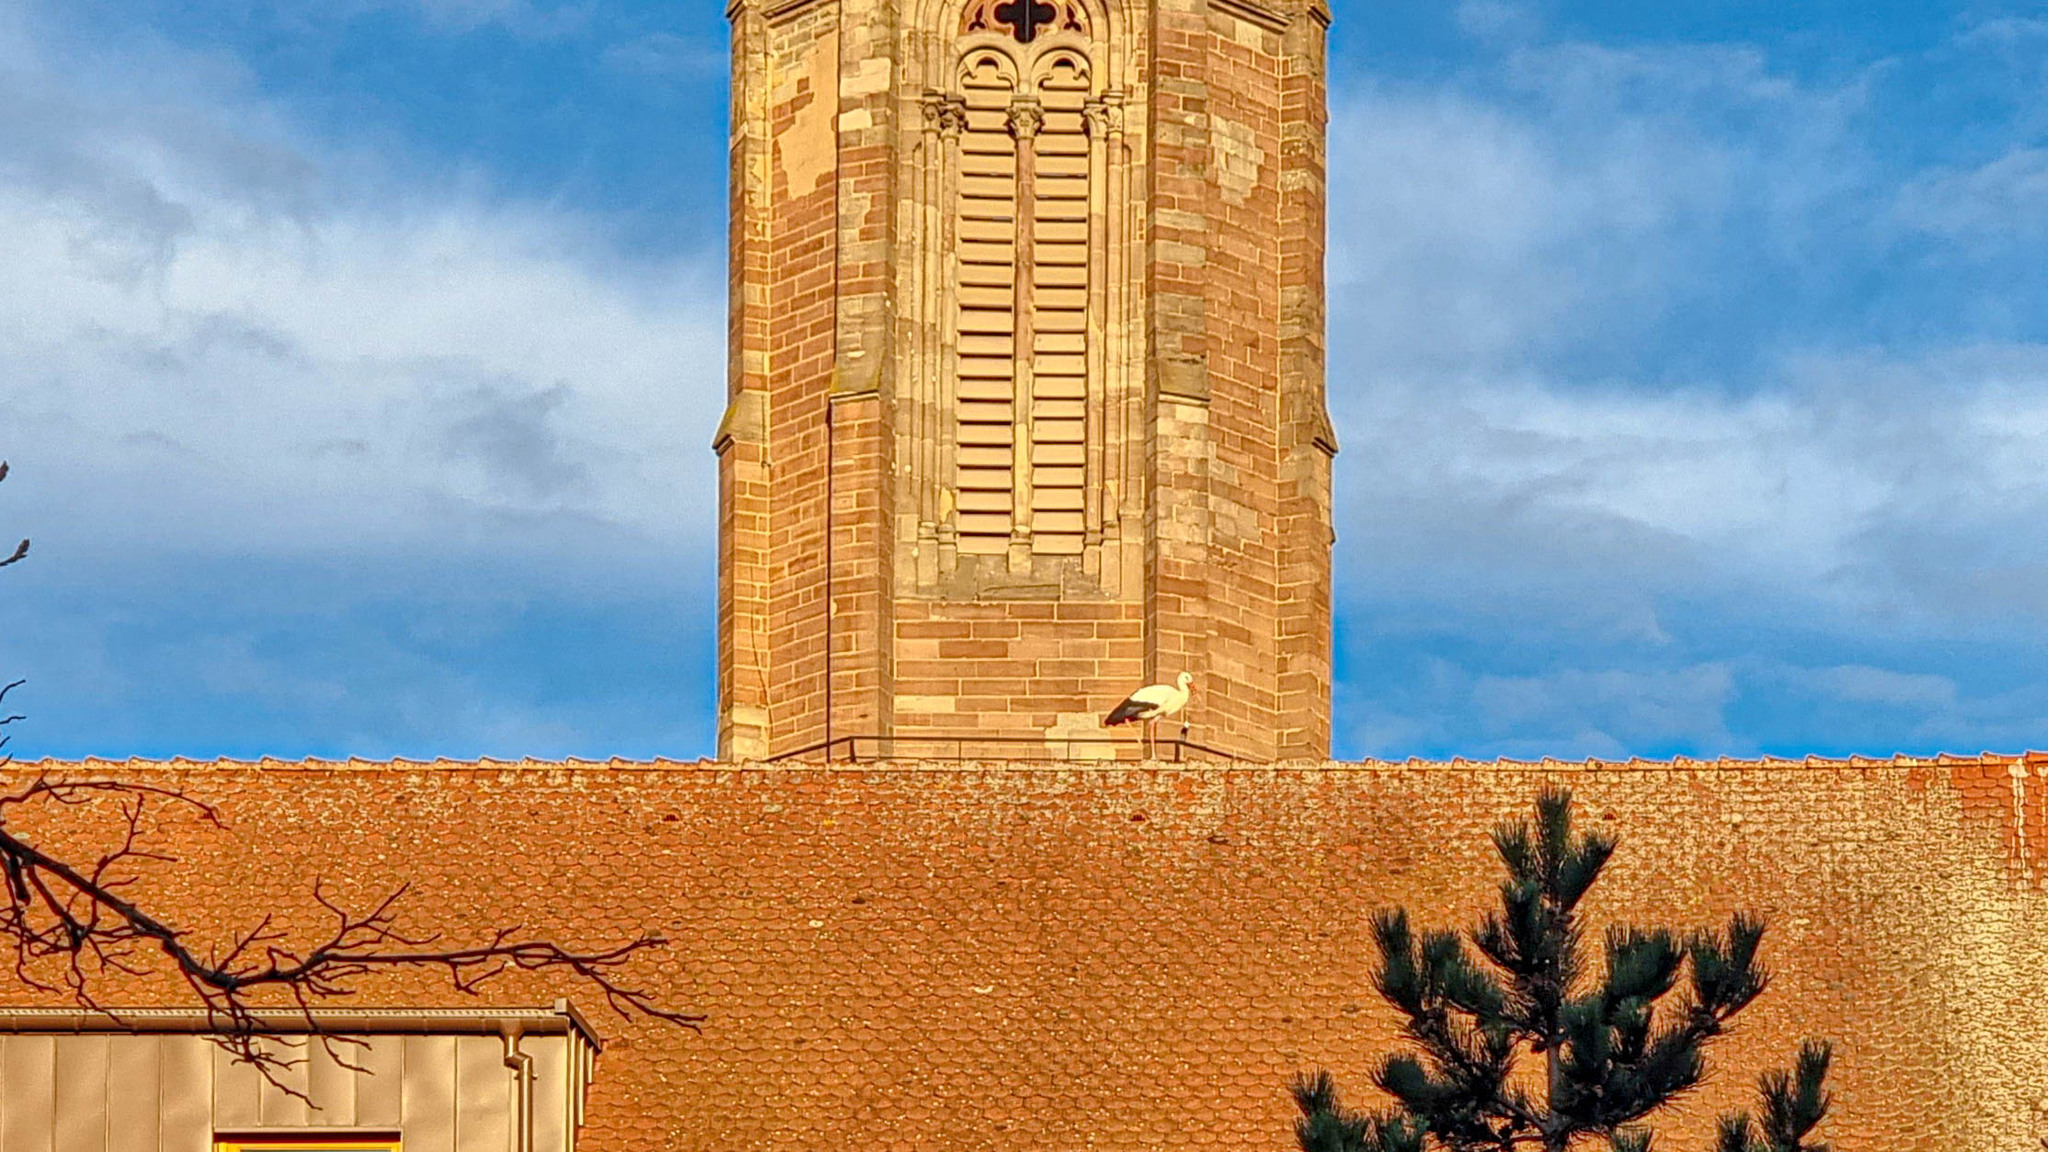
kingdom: Animalia
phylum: Chordata
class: Aves
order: Ciconiiformes
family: Ciconiidae
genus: Ciconia
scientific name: Ciconia ciconia
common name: White stork
